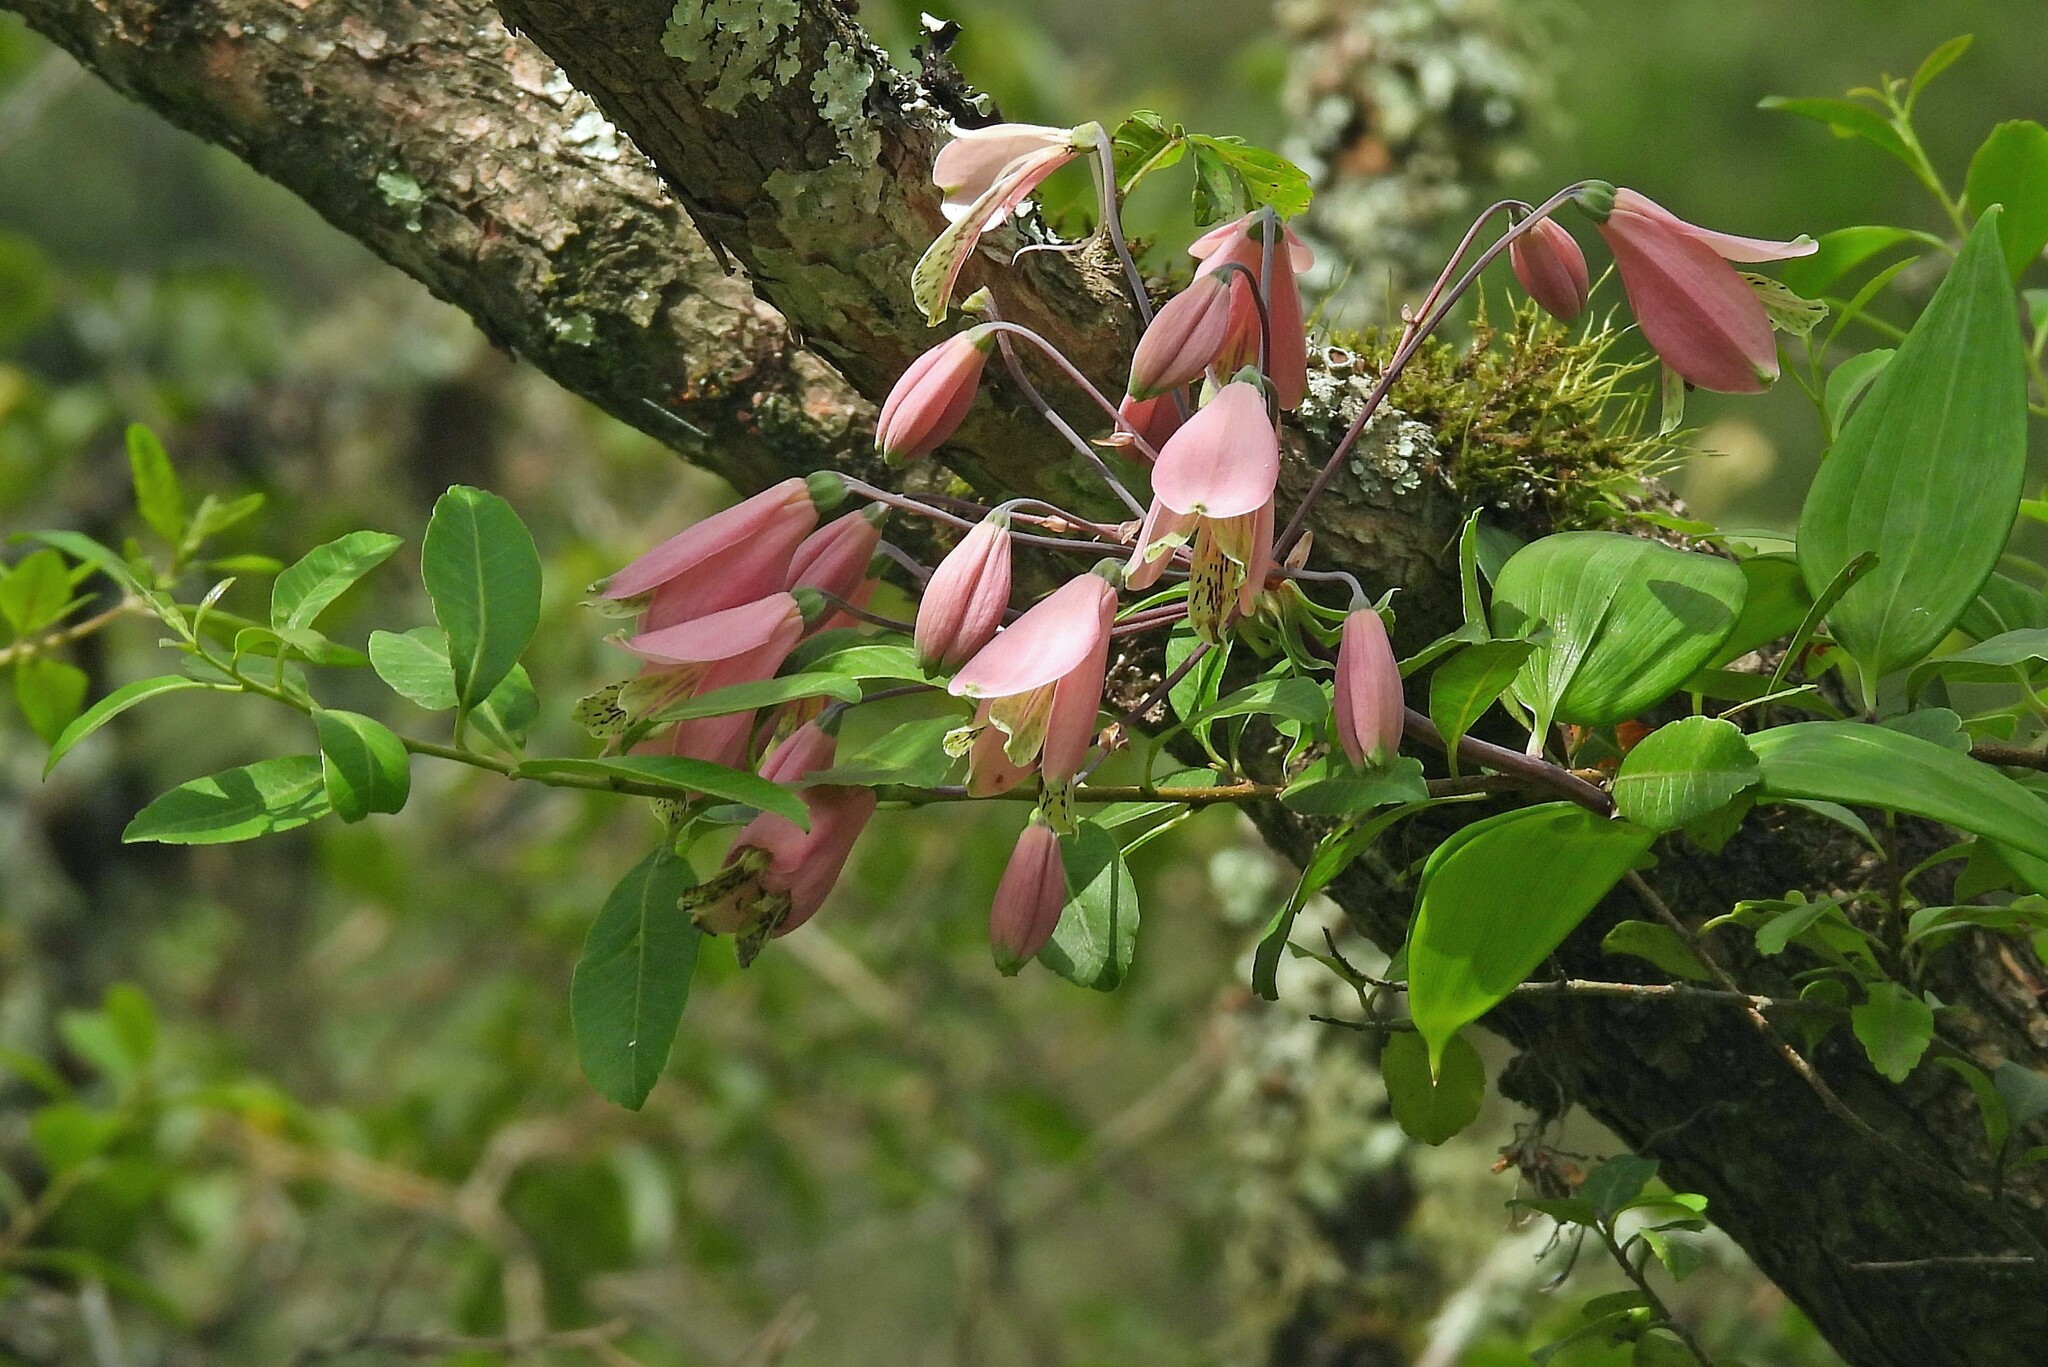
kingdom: Plantae
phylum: Tracheophyta
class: Liliopsida
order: Liliales
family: Alstroemeriaceae
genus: Bomarea
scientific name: Bomarea edulis
